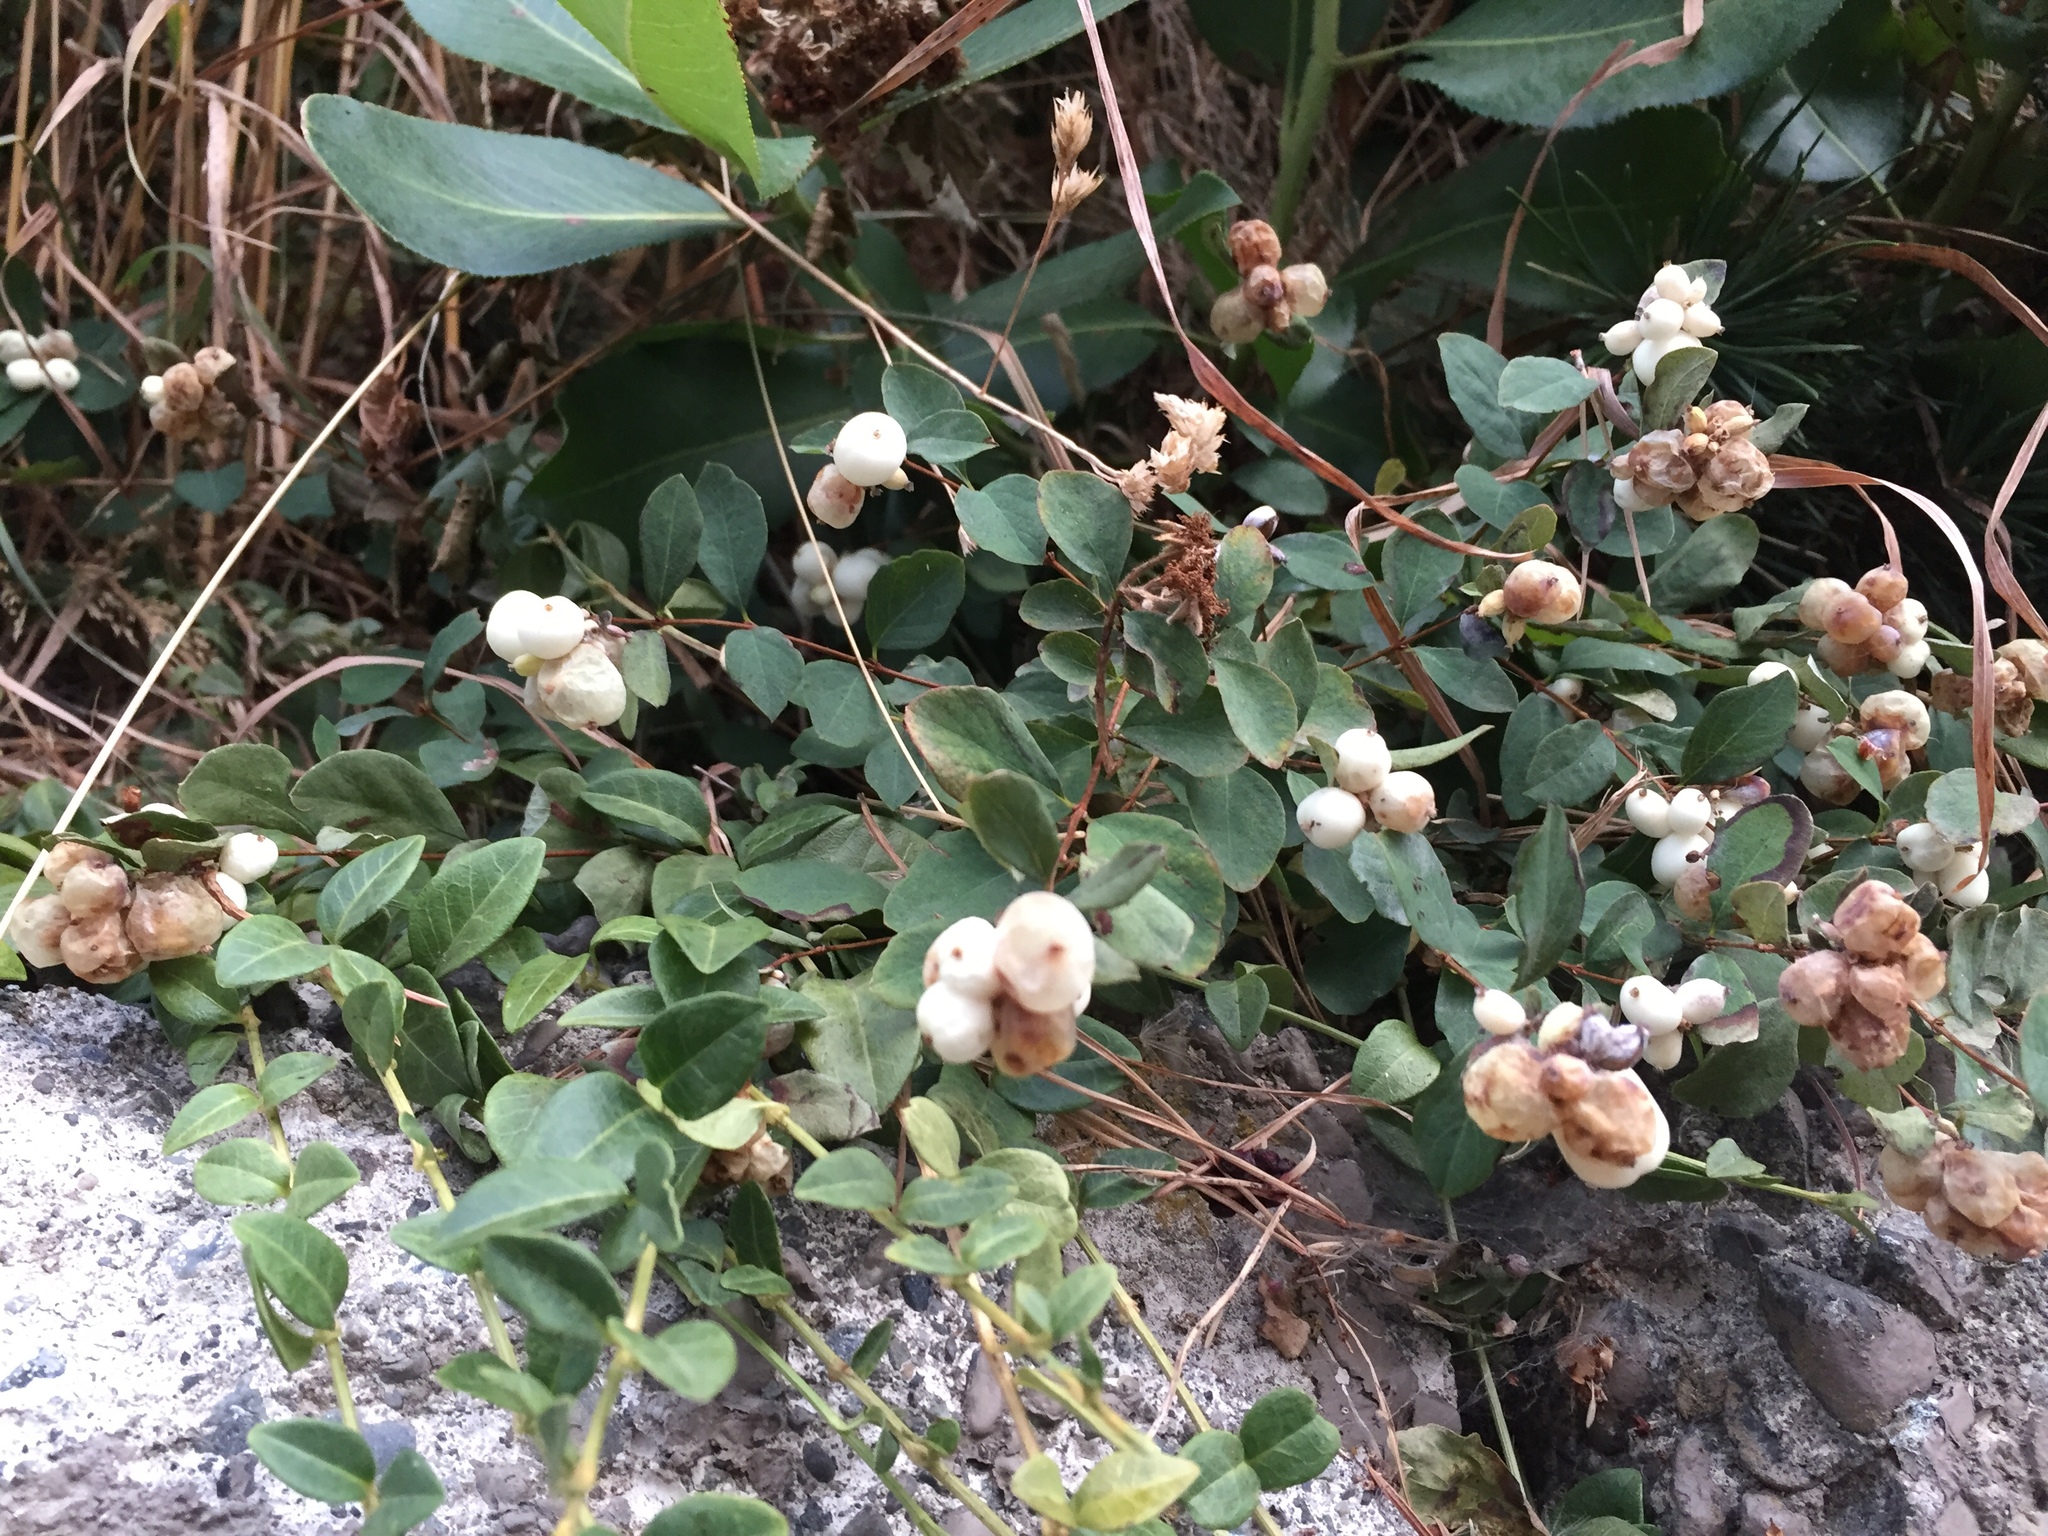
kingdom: Plantae
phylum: Tracheophyta
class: Magnoliopsida
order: Dipsacales
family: Caprifoliaceae
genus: Symphoricarpos
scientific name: Symphoricarpos albus
